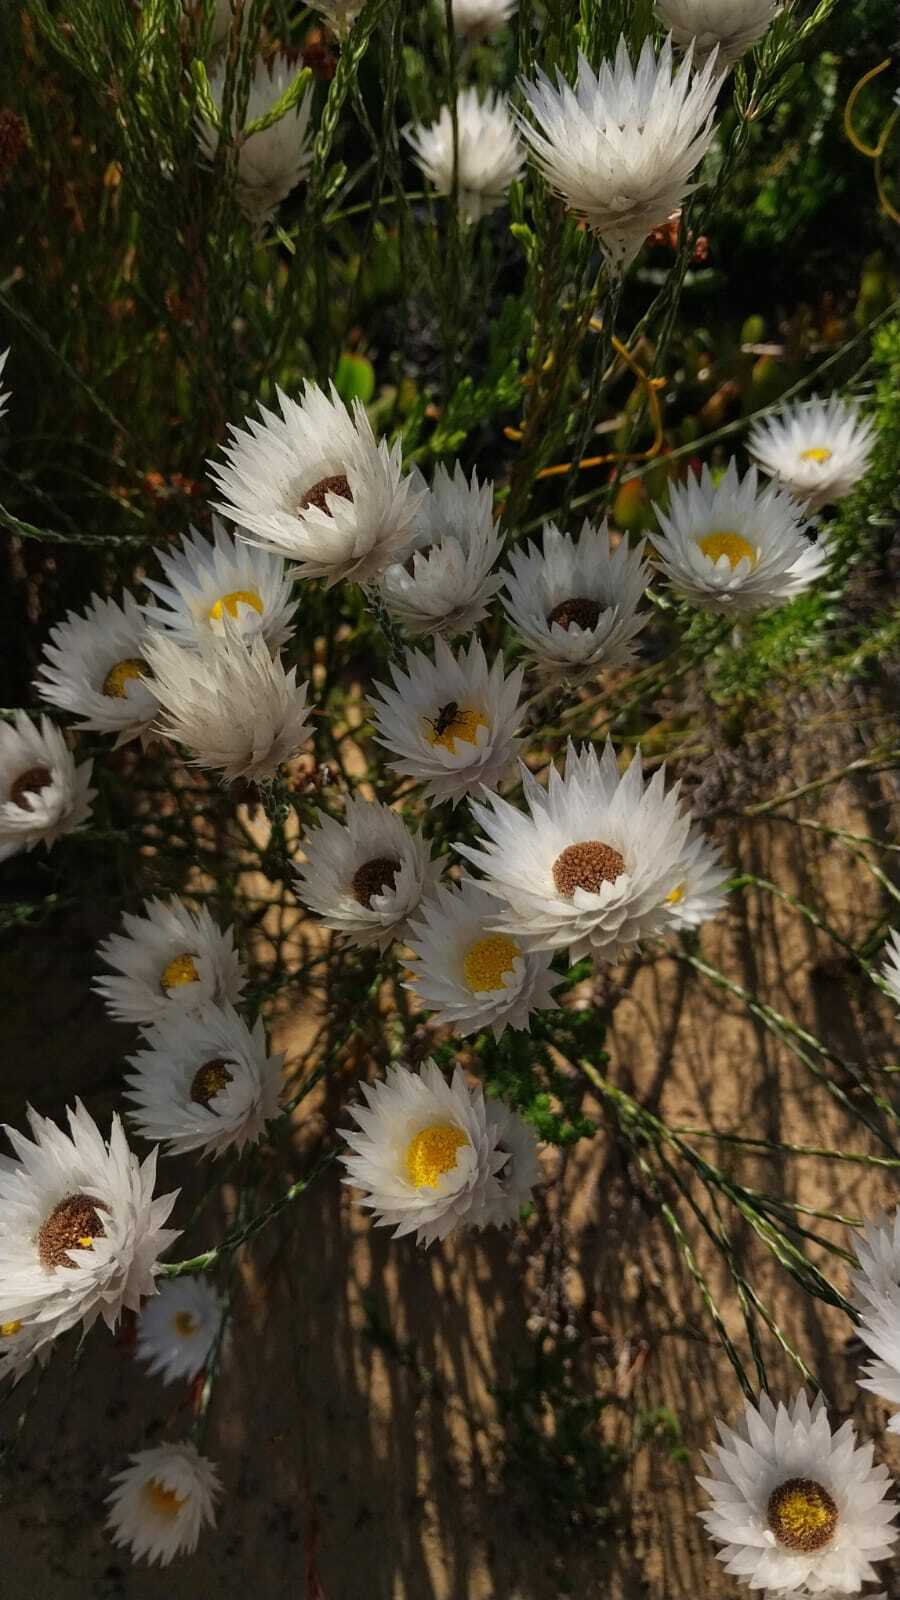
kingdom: Plantae
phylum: Tracheophyta
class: Magnoliopsida
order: Asterales
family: Asteraceae
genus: Edmondia
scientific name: Edmondia sesamoides
